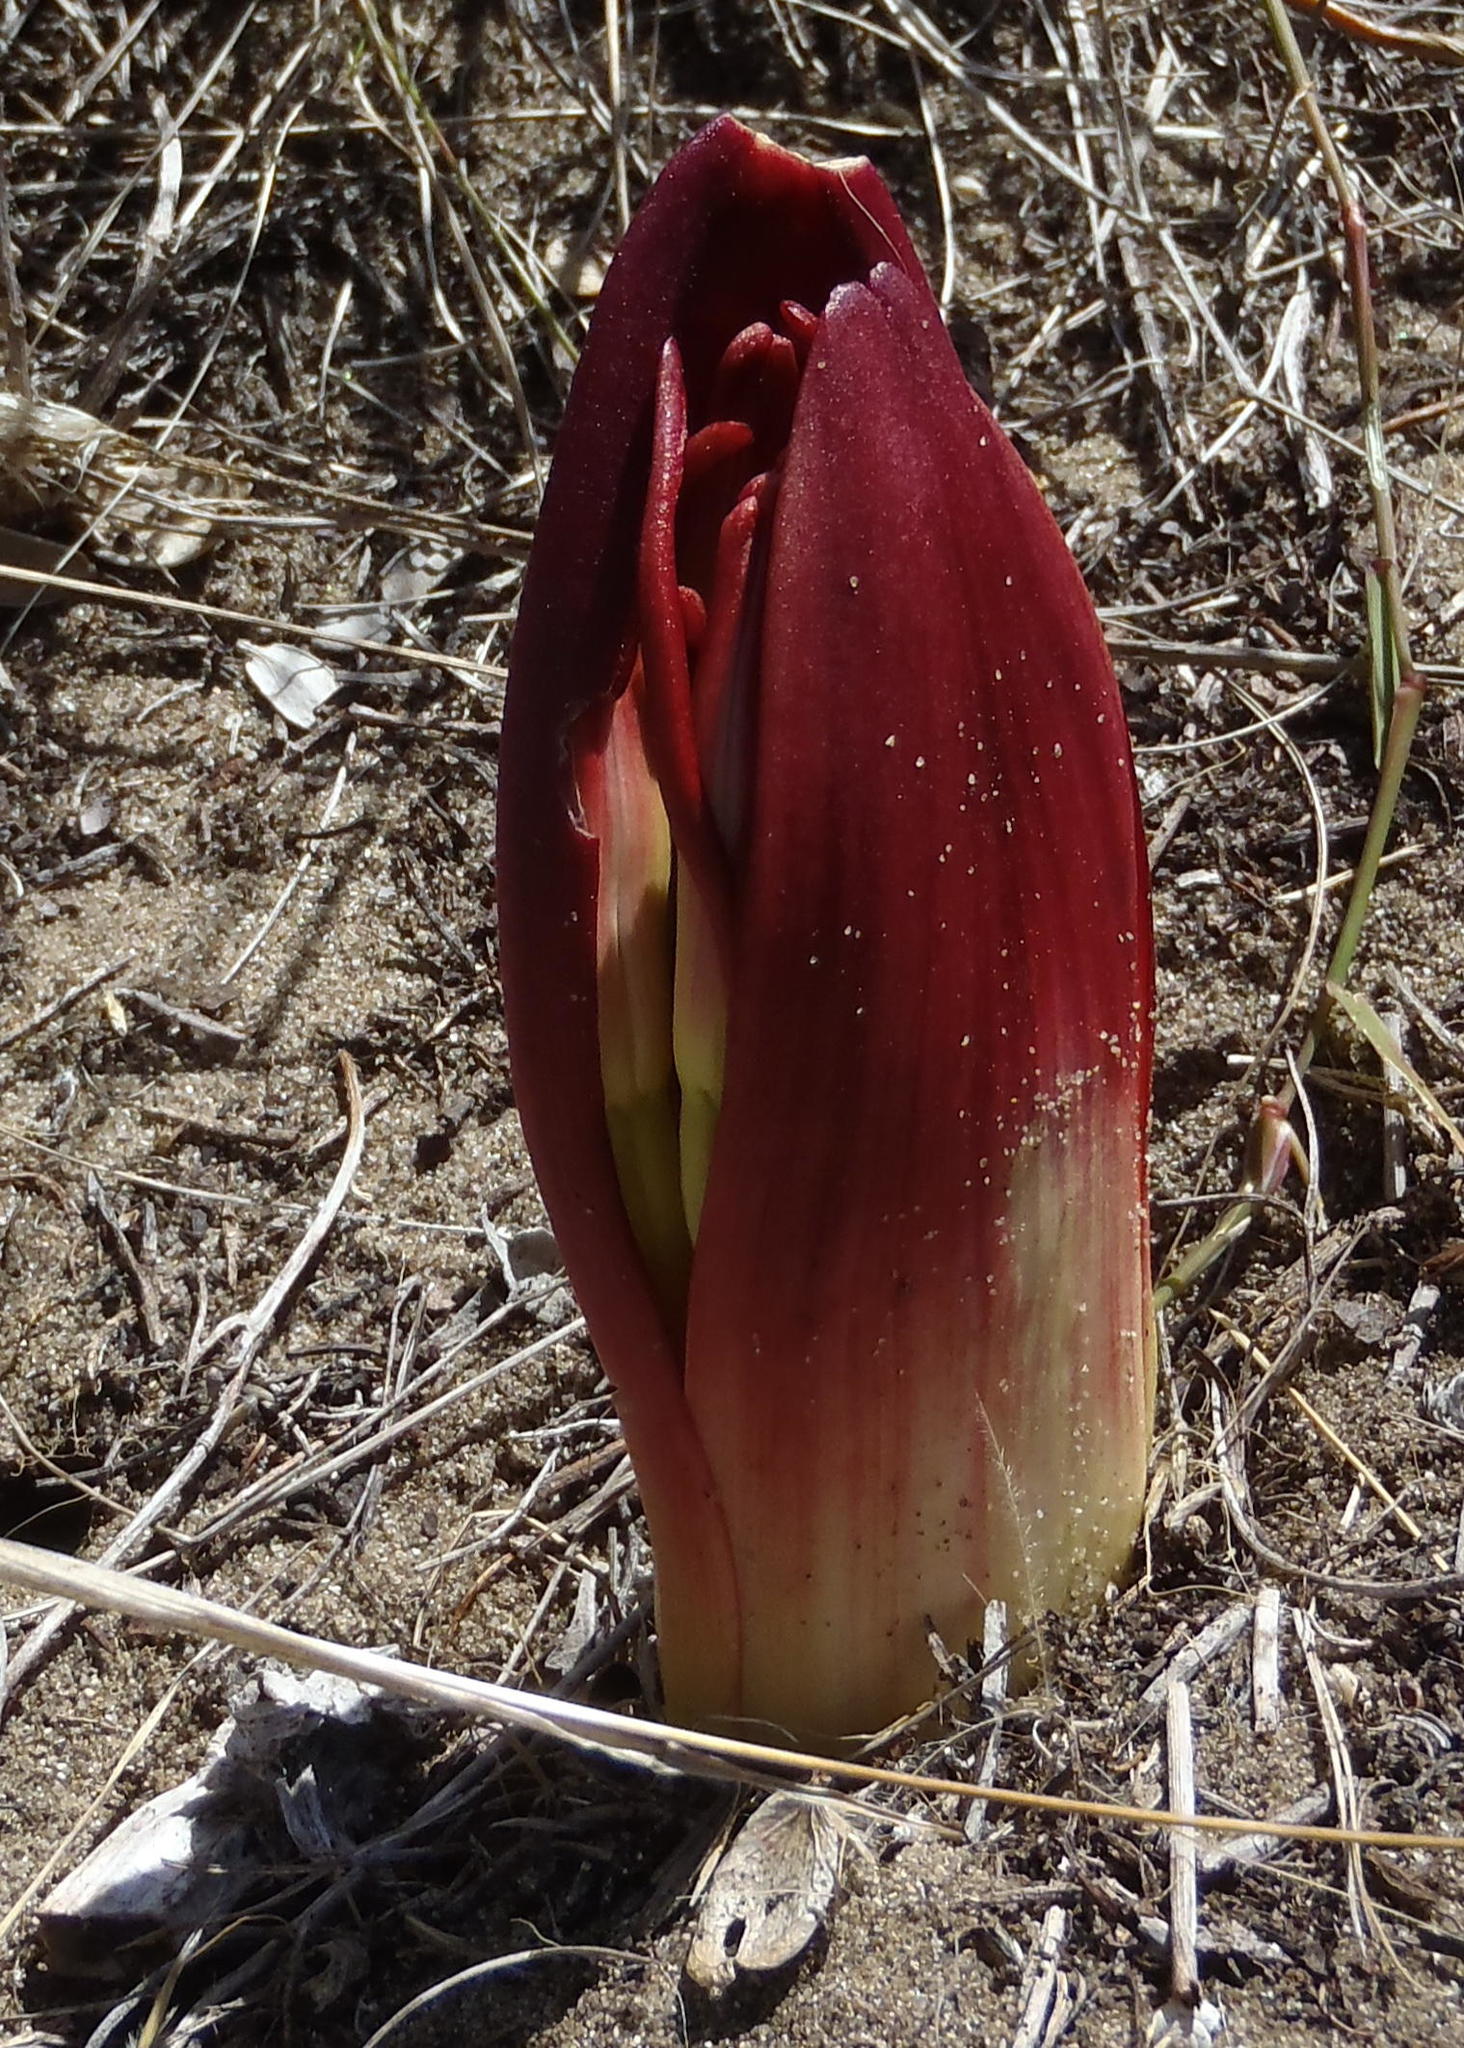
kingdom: Plantae
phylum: Tracheophyta
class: Liliopsida
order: Asparagales
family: Amaryllidaceae
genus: Brunsvigia
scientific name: Brunsvigia orientalis
